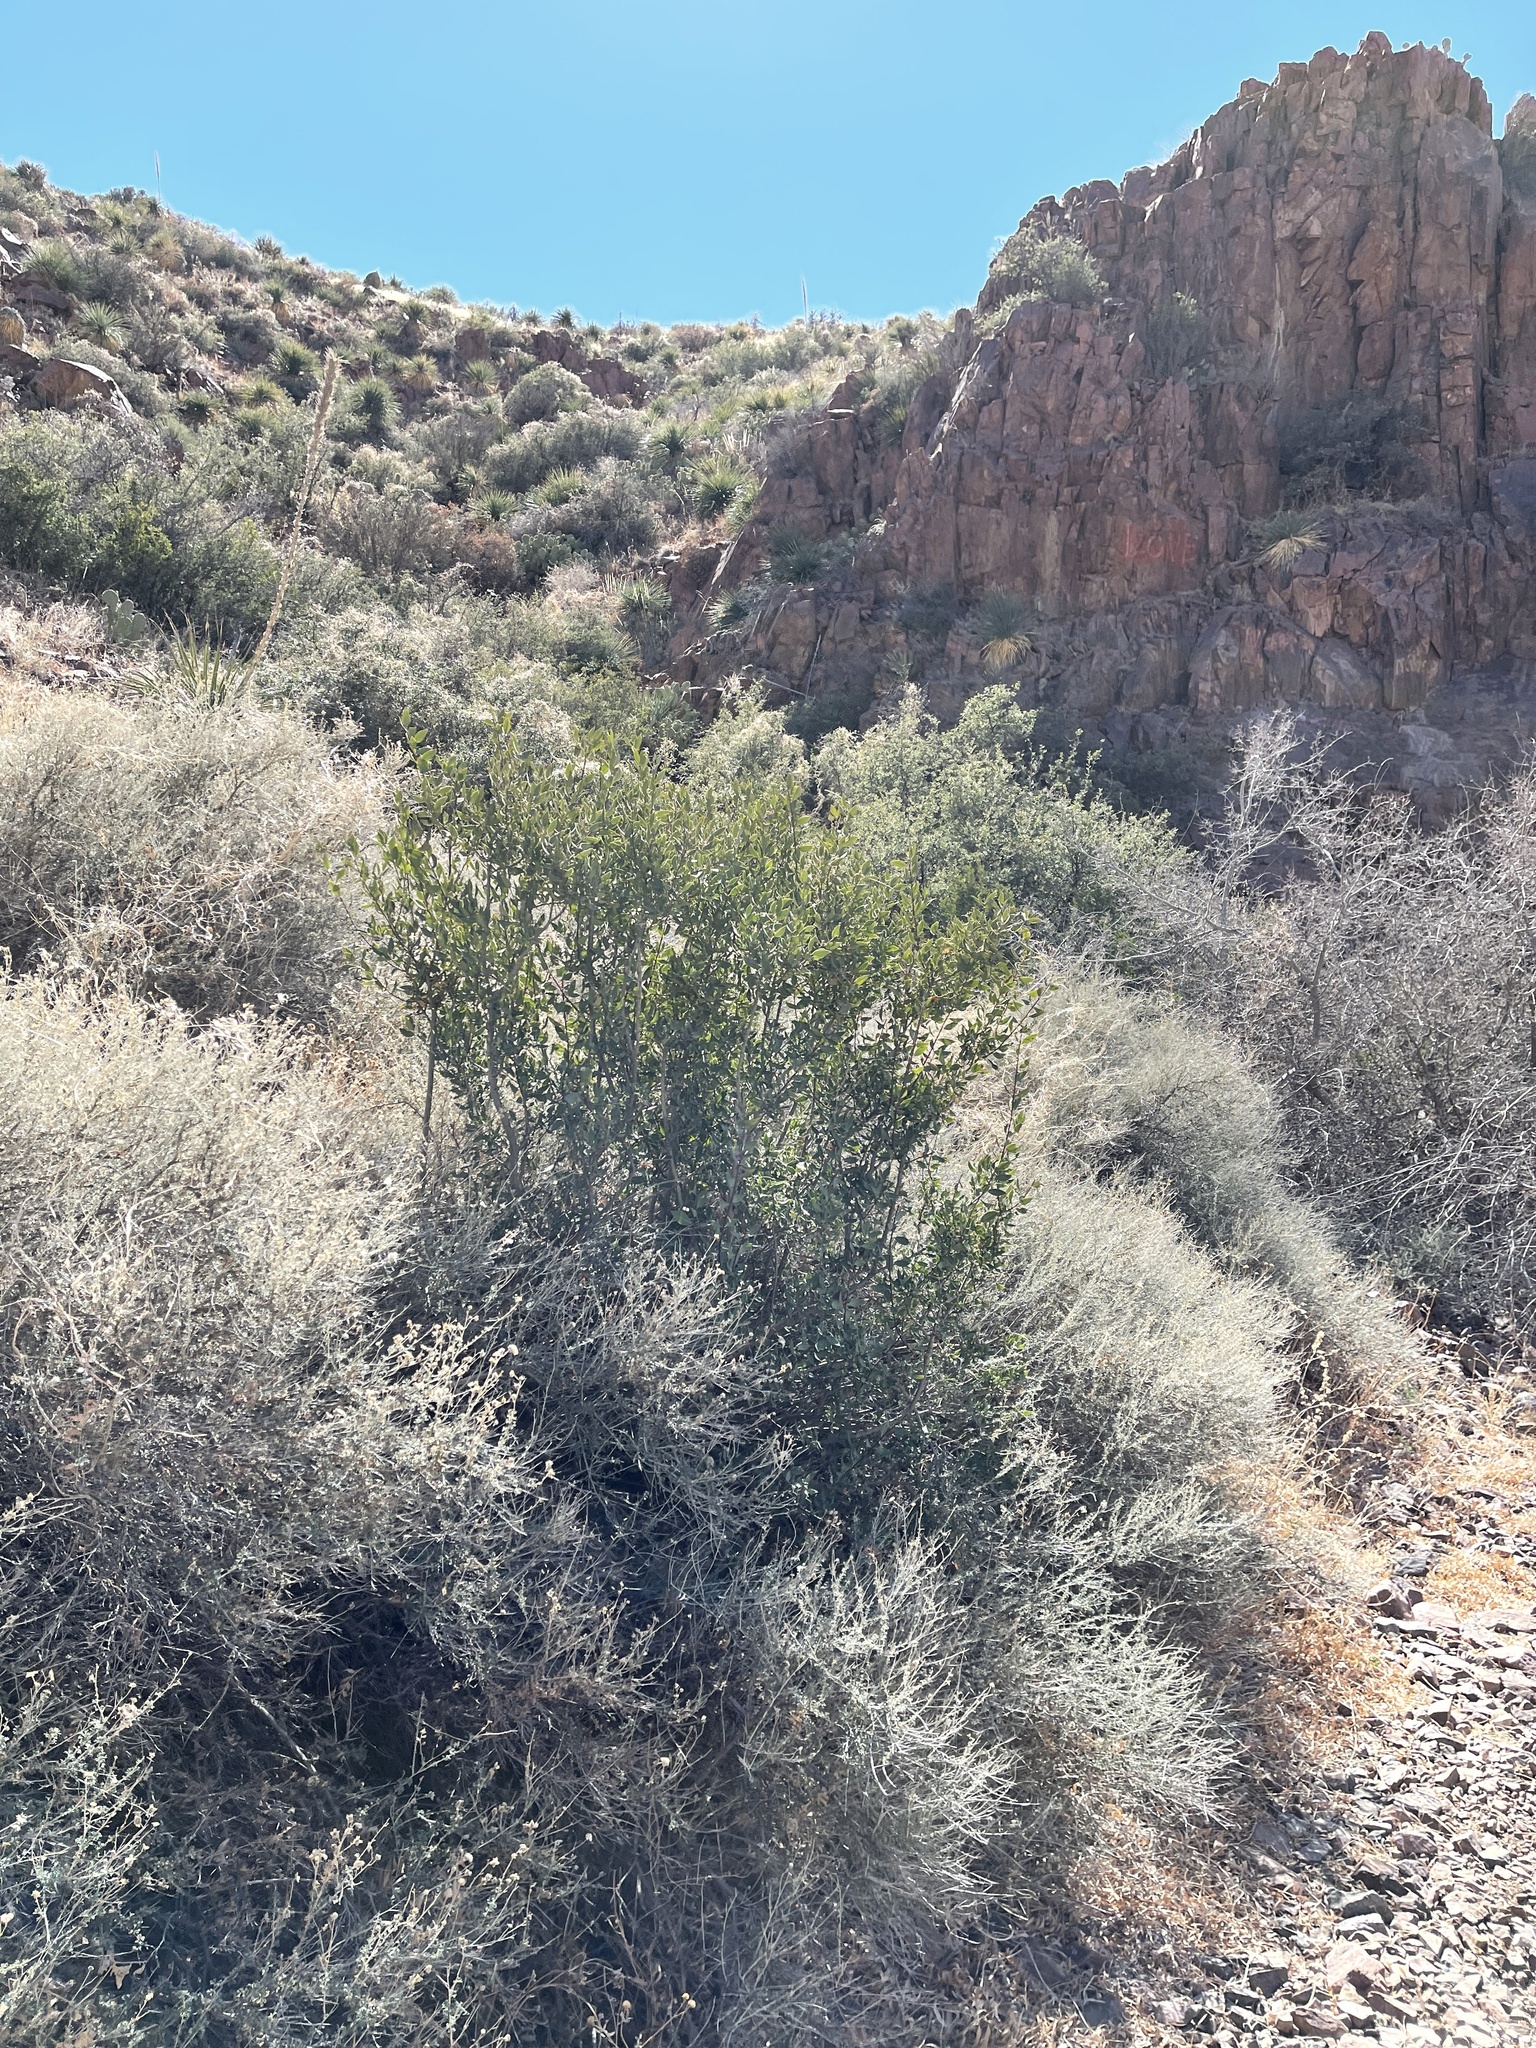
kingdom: Plantae
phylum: Tracheophyta
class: Magnoliopsida
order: Garryales
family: Garryaceae
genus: Garrya
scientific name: Garrya wrightii
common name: Wright's silktassel
